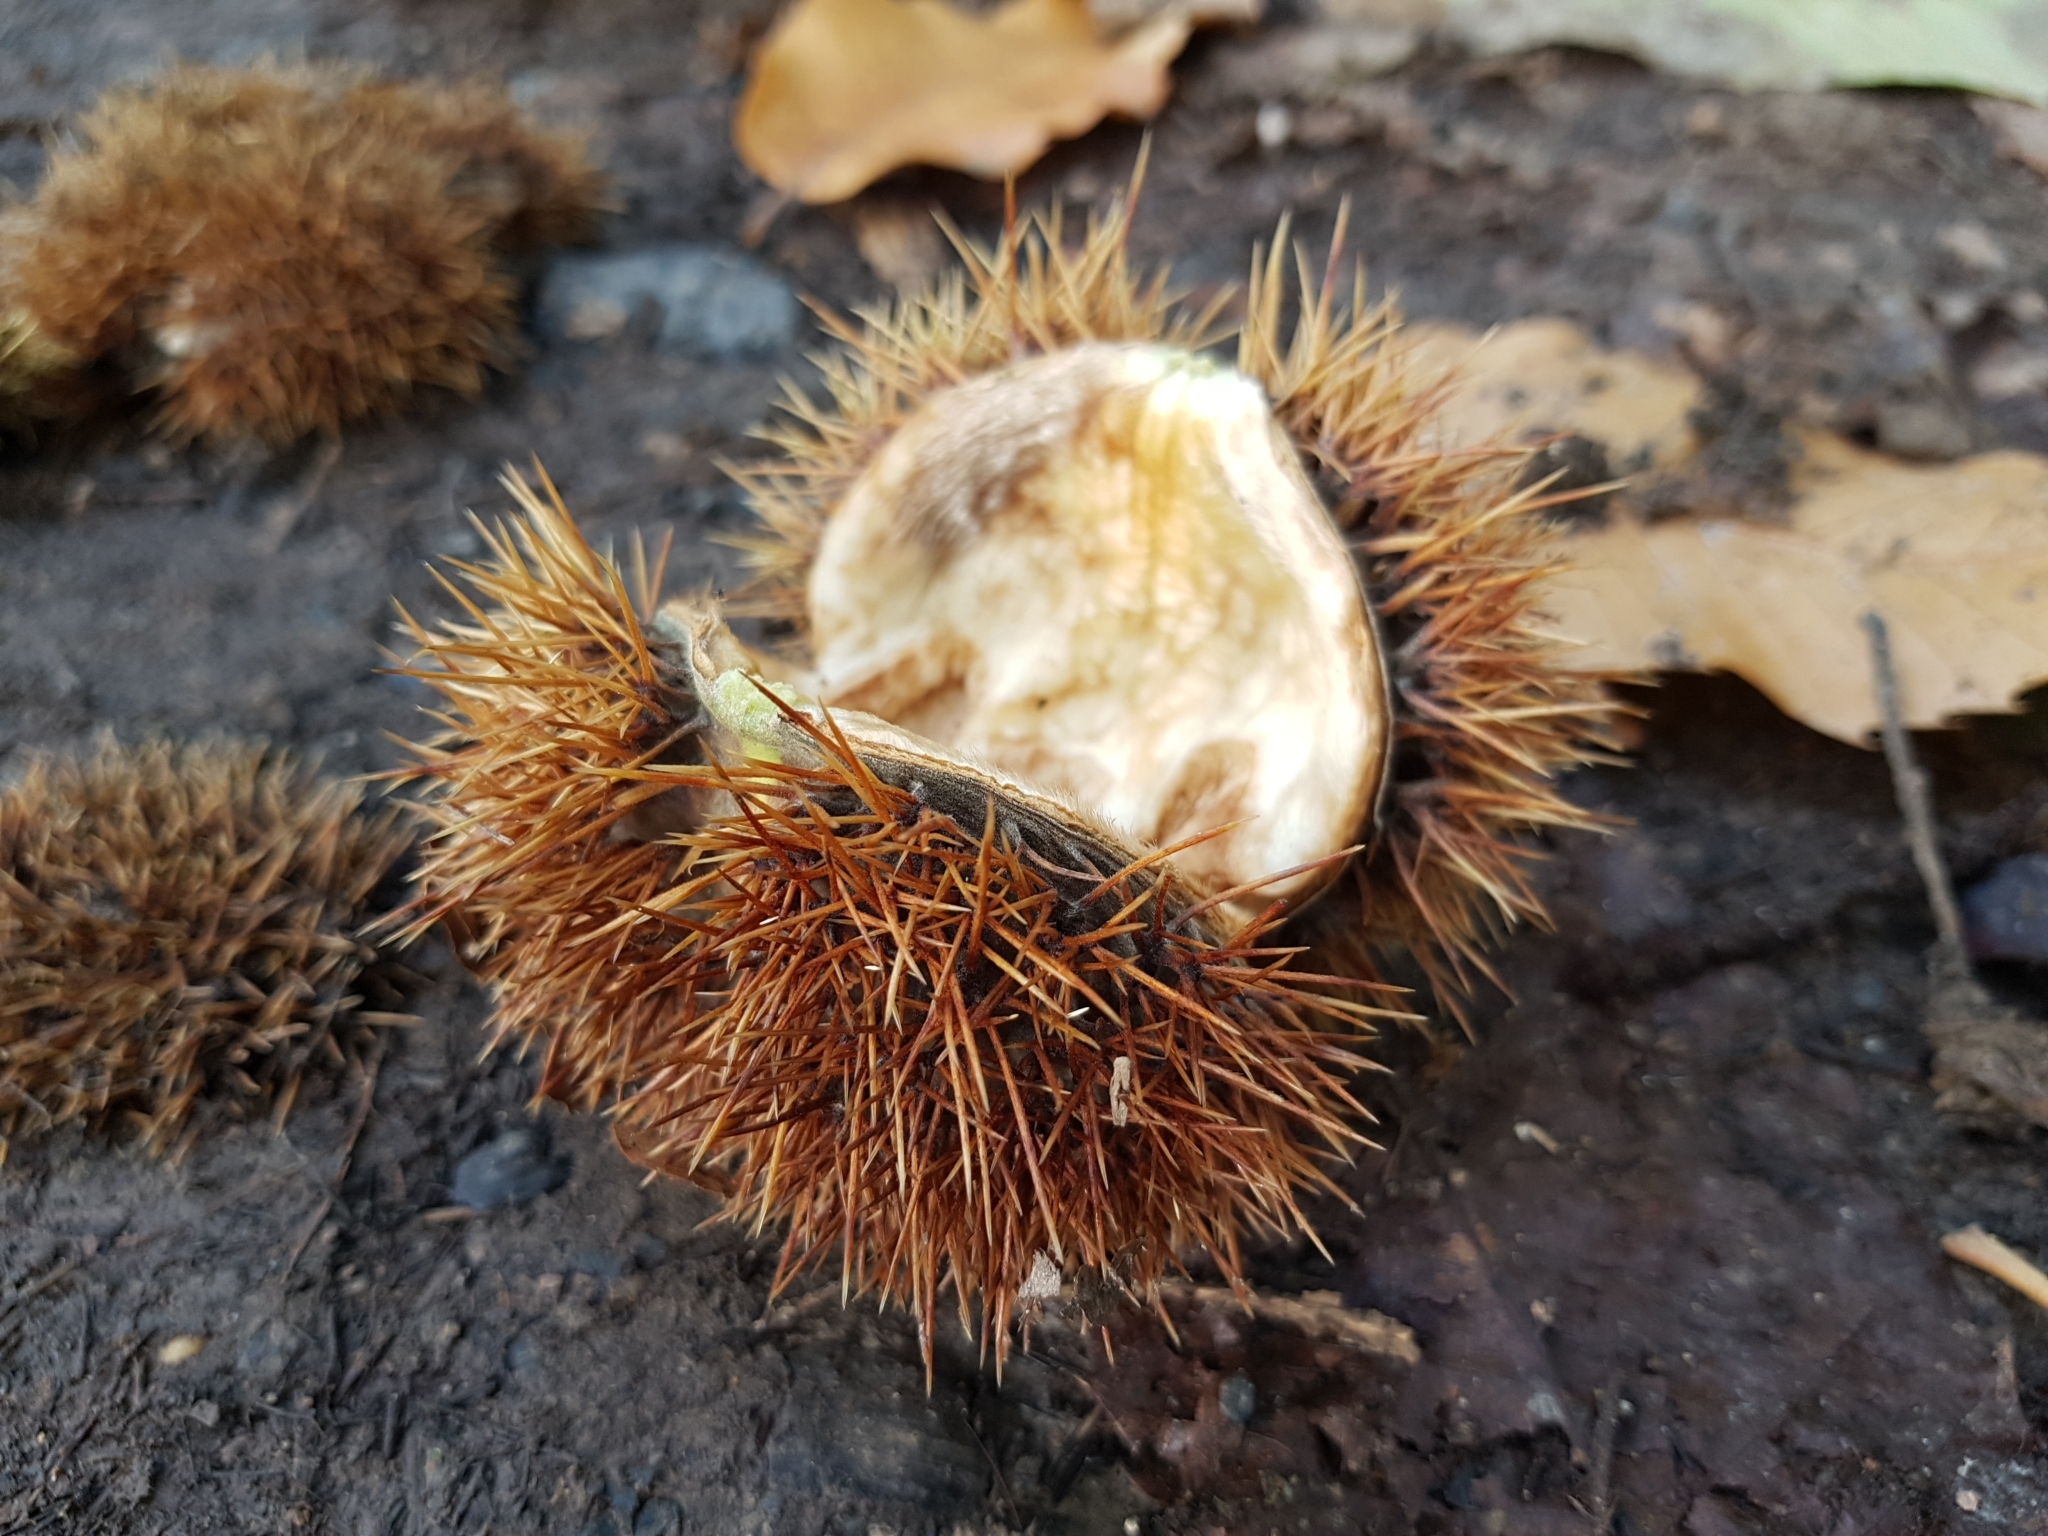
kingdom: Plantae
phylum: Tracheophyta
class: Magnoliopsida
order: Fagales
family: Fagaceae
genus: Castanea
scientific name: Castanea sativa
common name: Sweet chestnut
